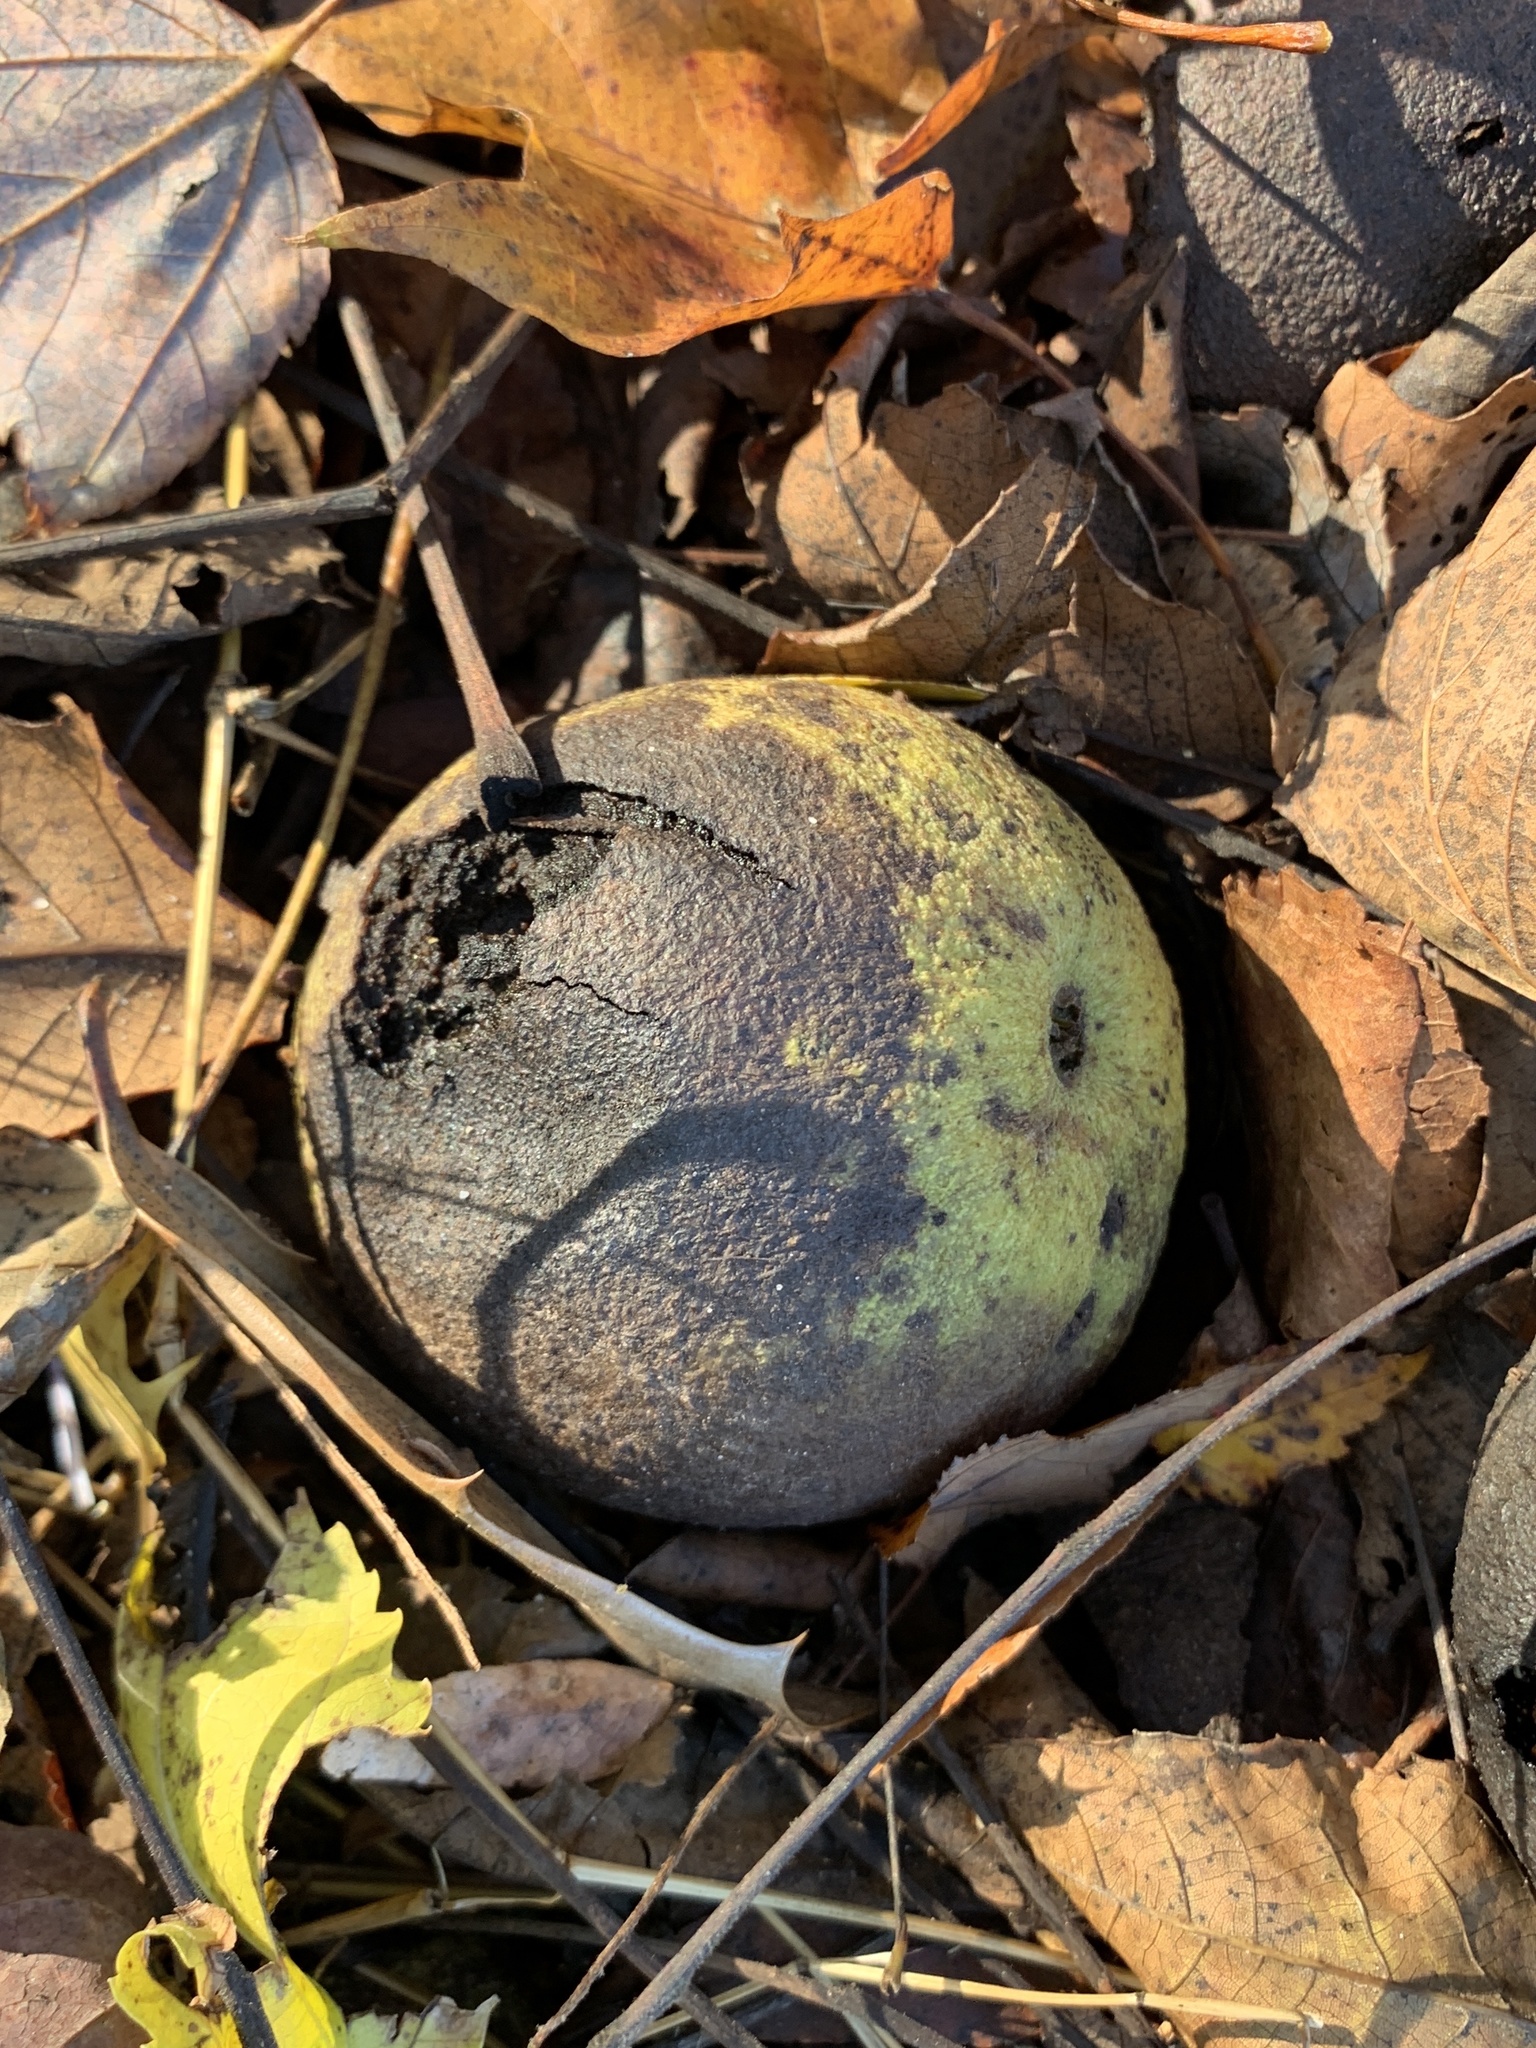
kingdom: Plantae
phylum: Tracheophyta
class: Magnoliopsida
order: Fagales
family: Juglandaceae
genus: Juglans
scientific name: Juglans nigra
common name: Black walnut
